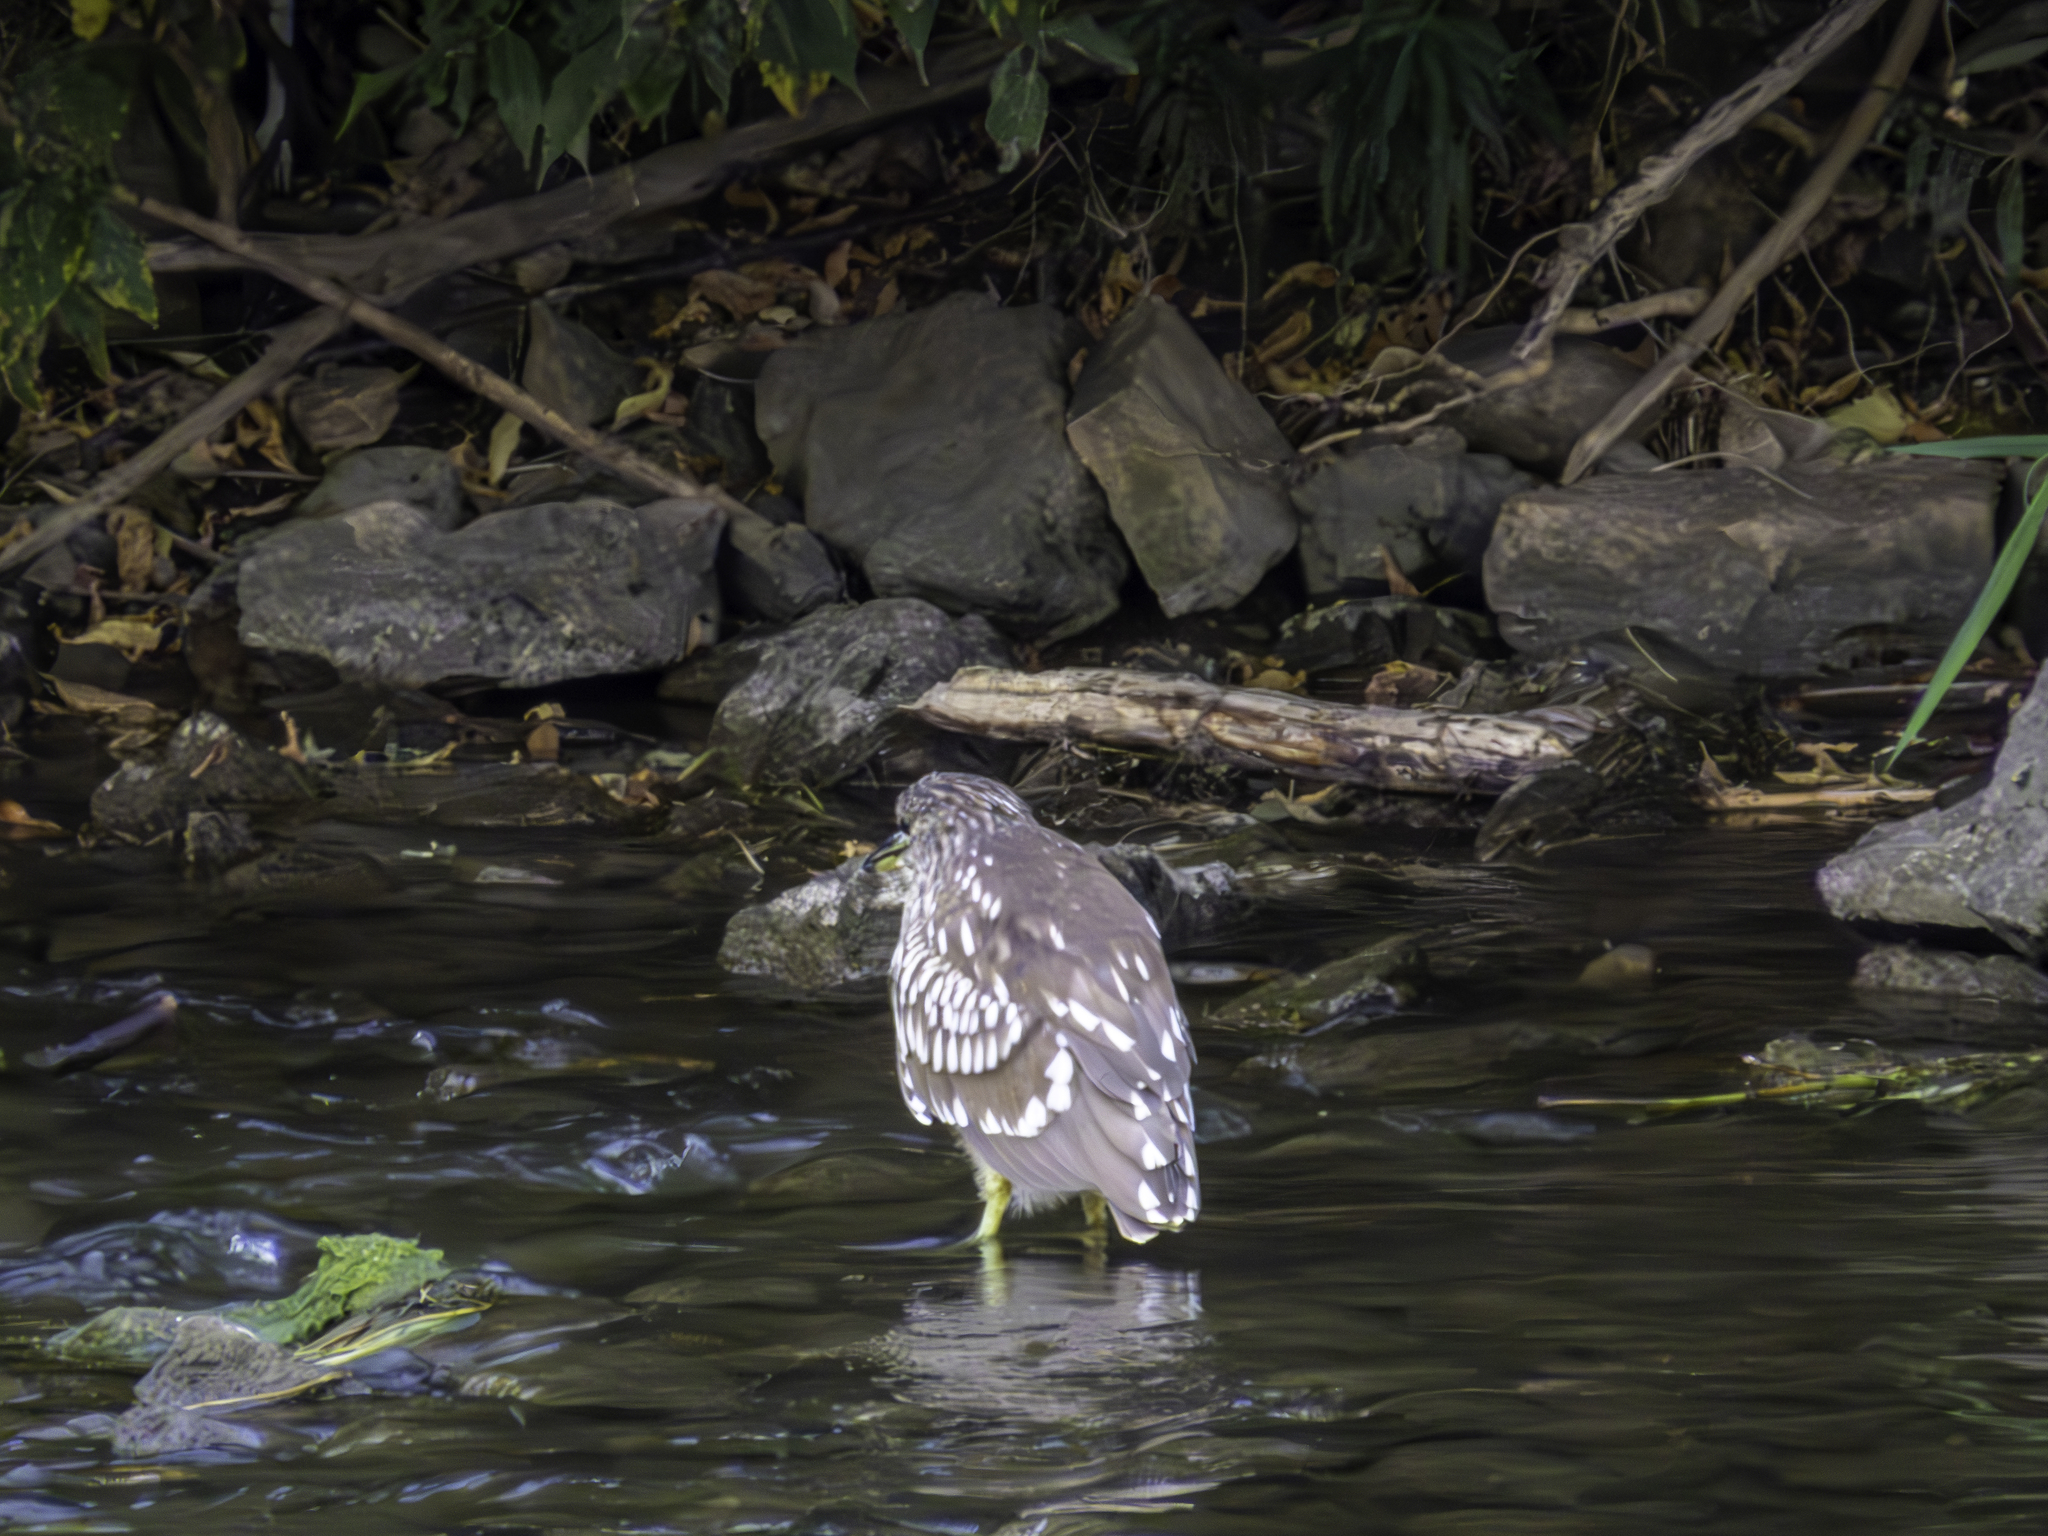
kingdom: Animalia
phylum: Chordata
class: Aves
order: Pelecaniformes
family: Ardeidae
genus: Nycticorax
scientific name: Nycticorax nycticorax
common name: Black-crowned night heron
